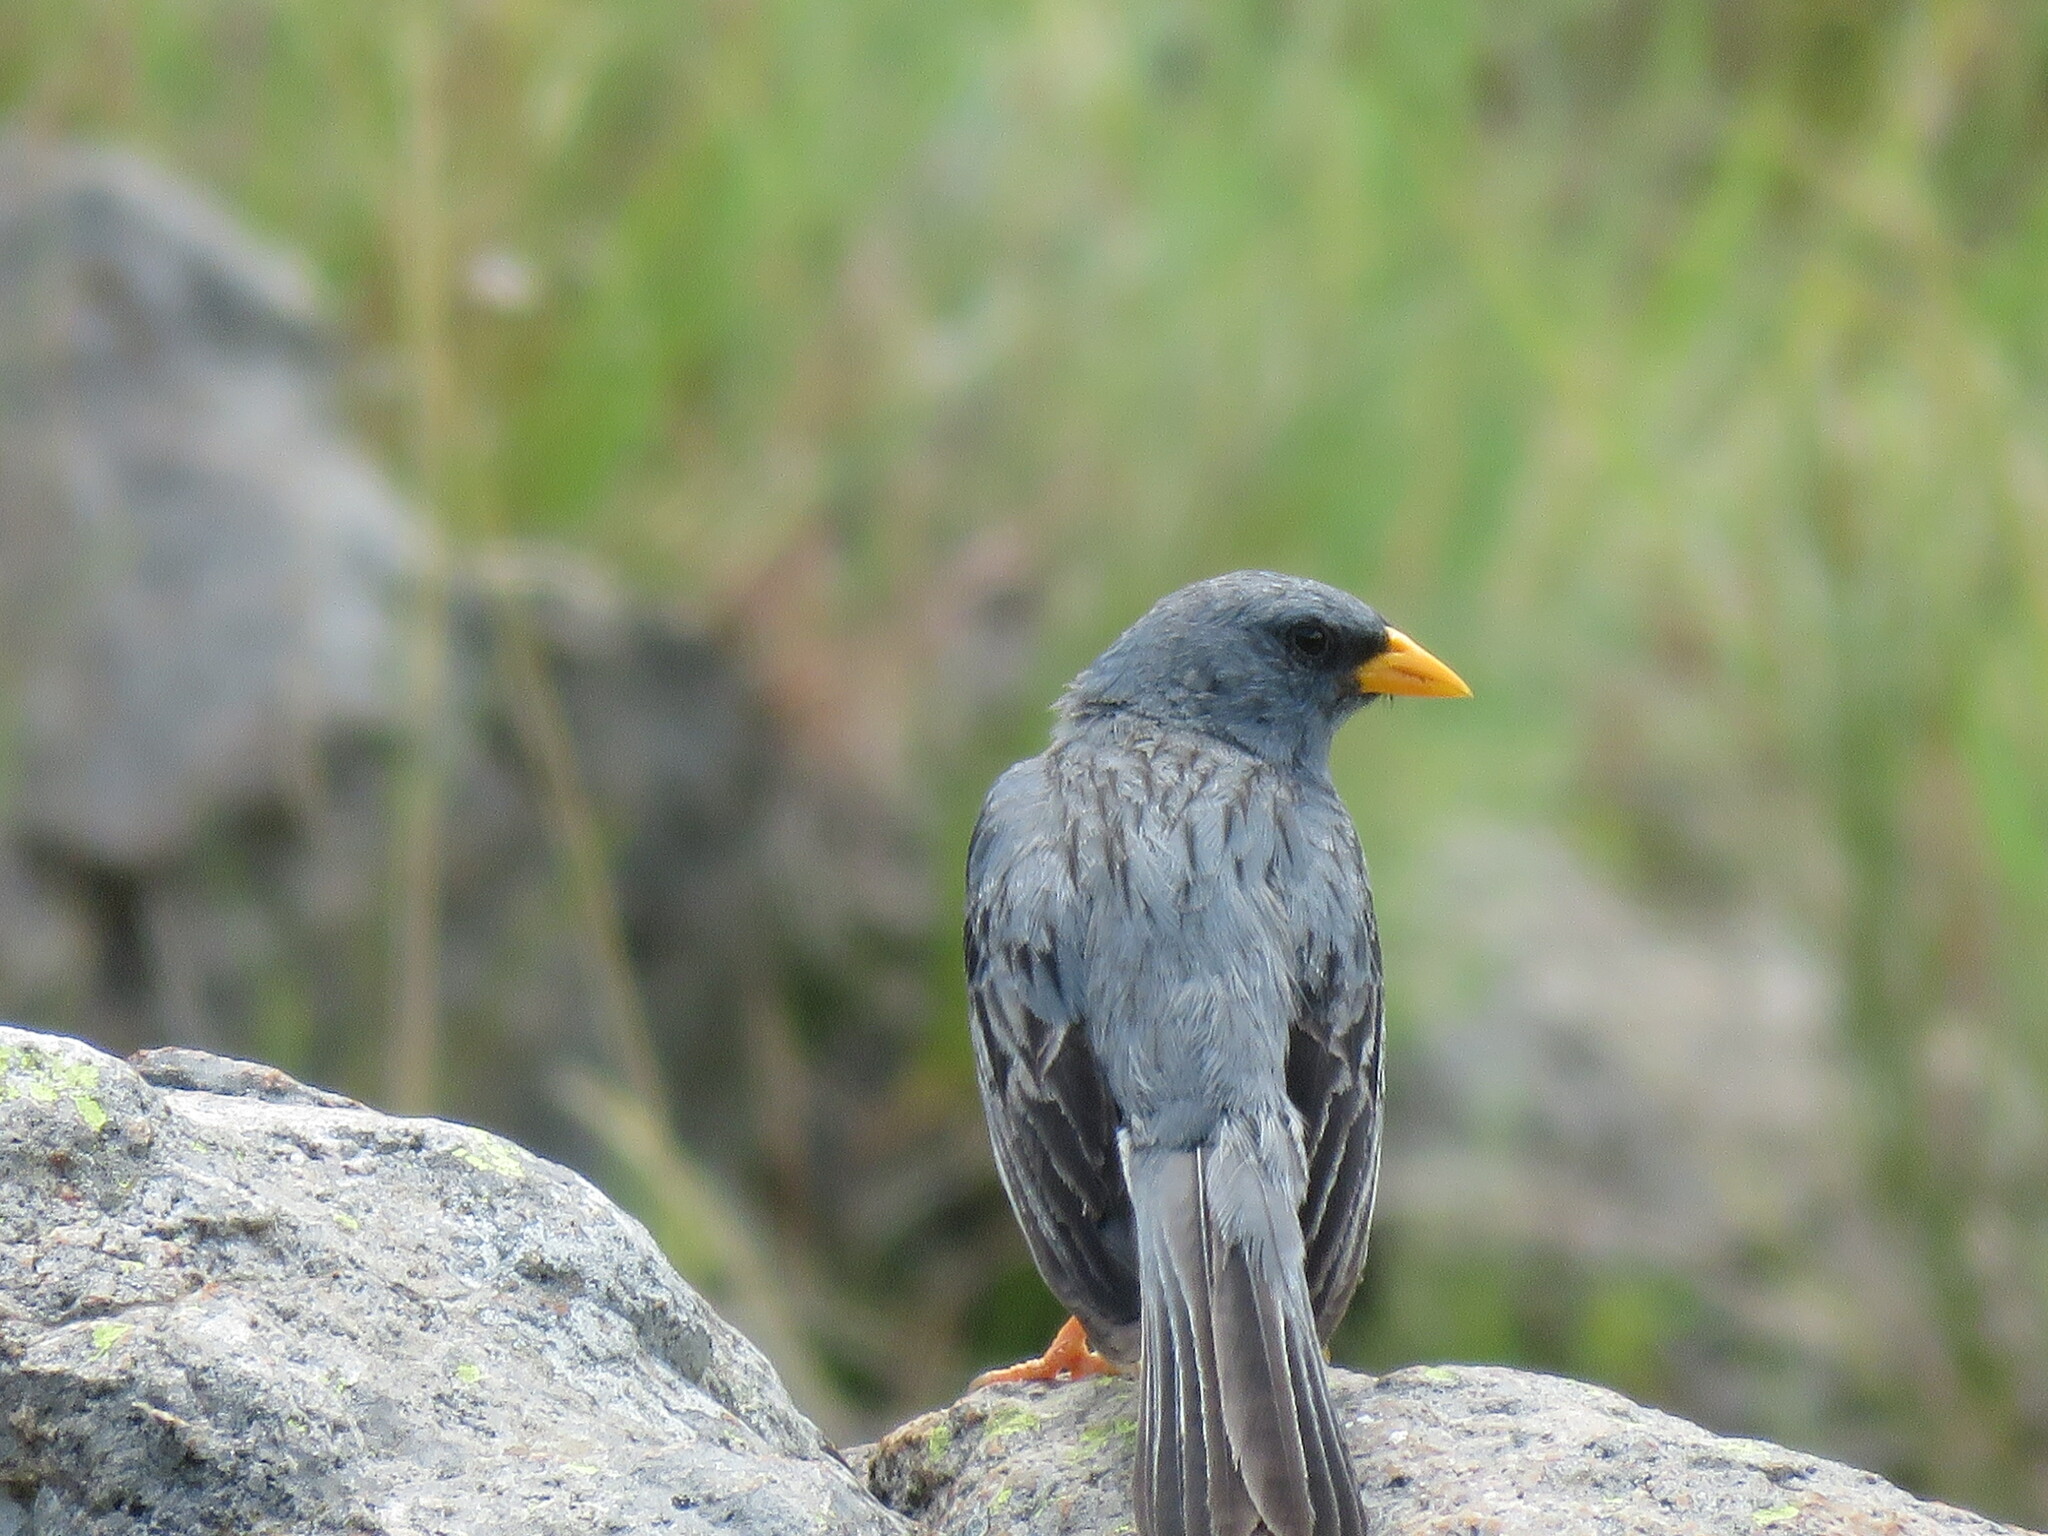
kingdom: Animalia
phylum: Chordata
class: Aves
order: Passeriformes
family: Thraupidae
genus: Porphyrospiza
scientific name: Porphyrospiza alaudina
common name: Band-tailed sierra finch
